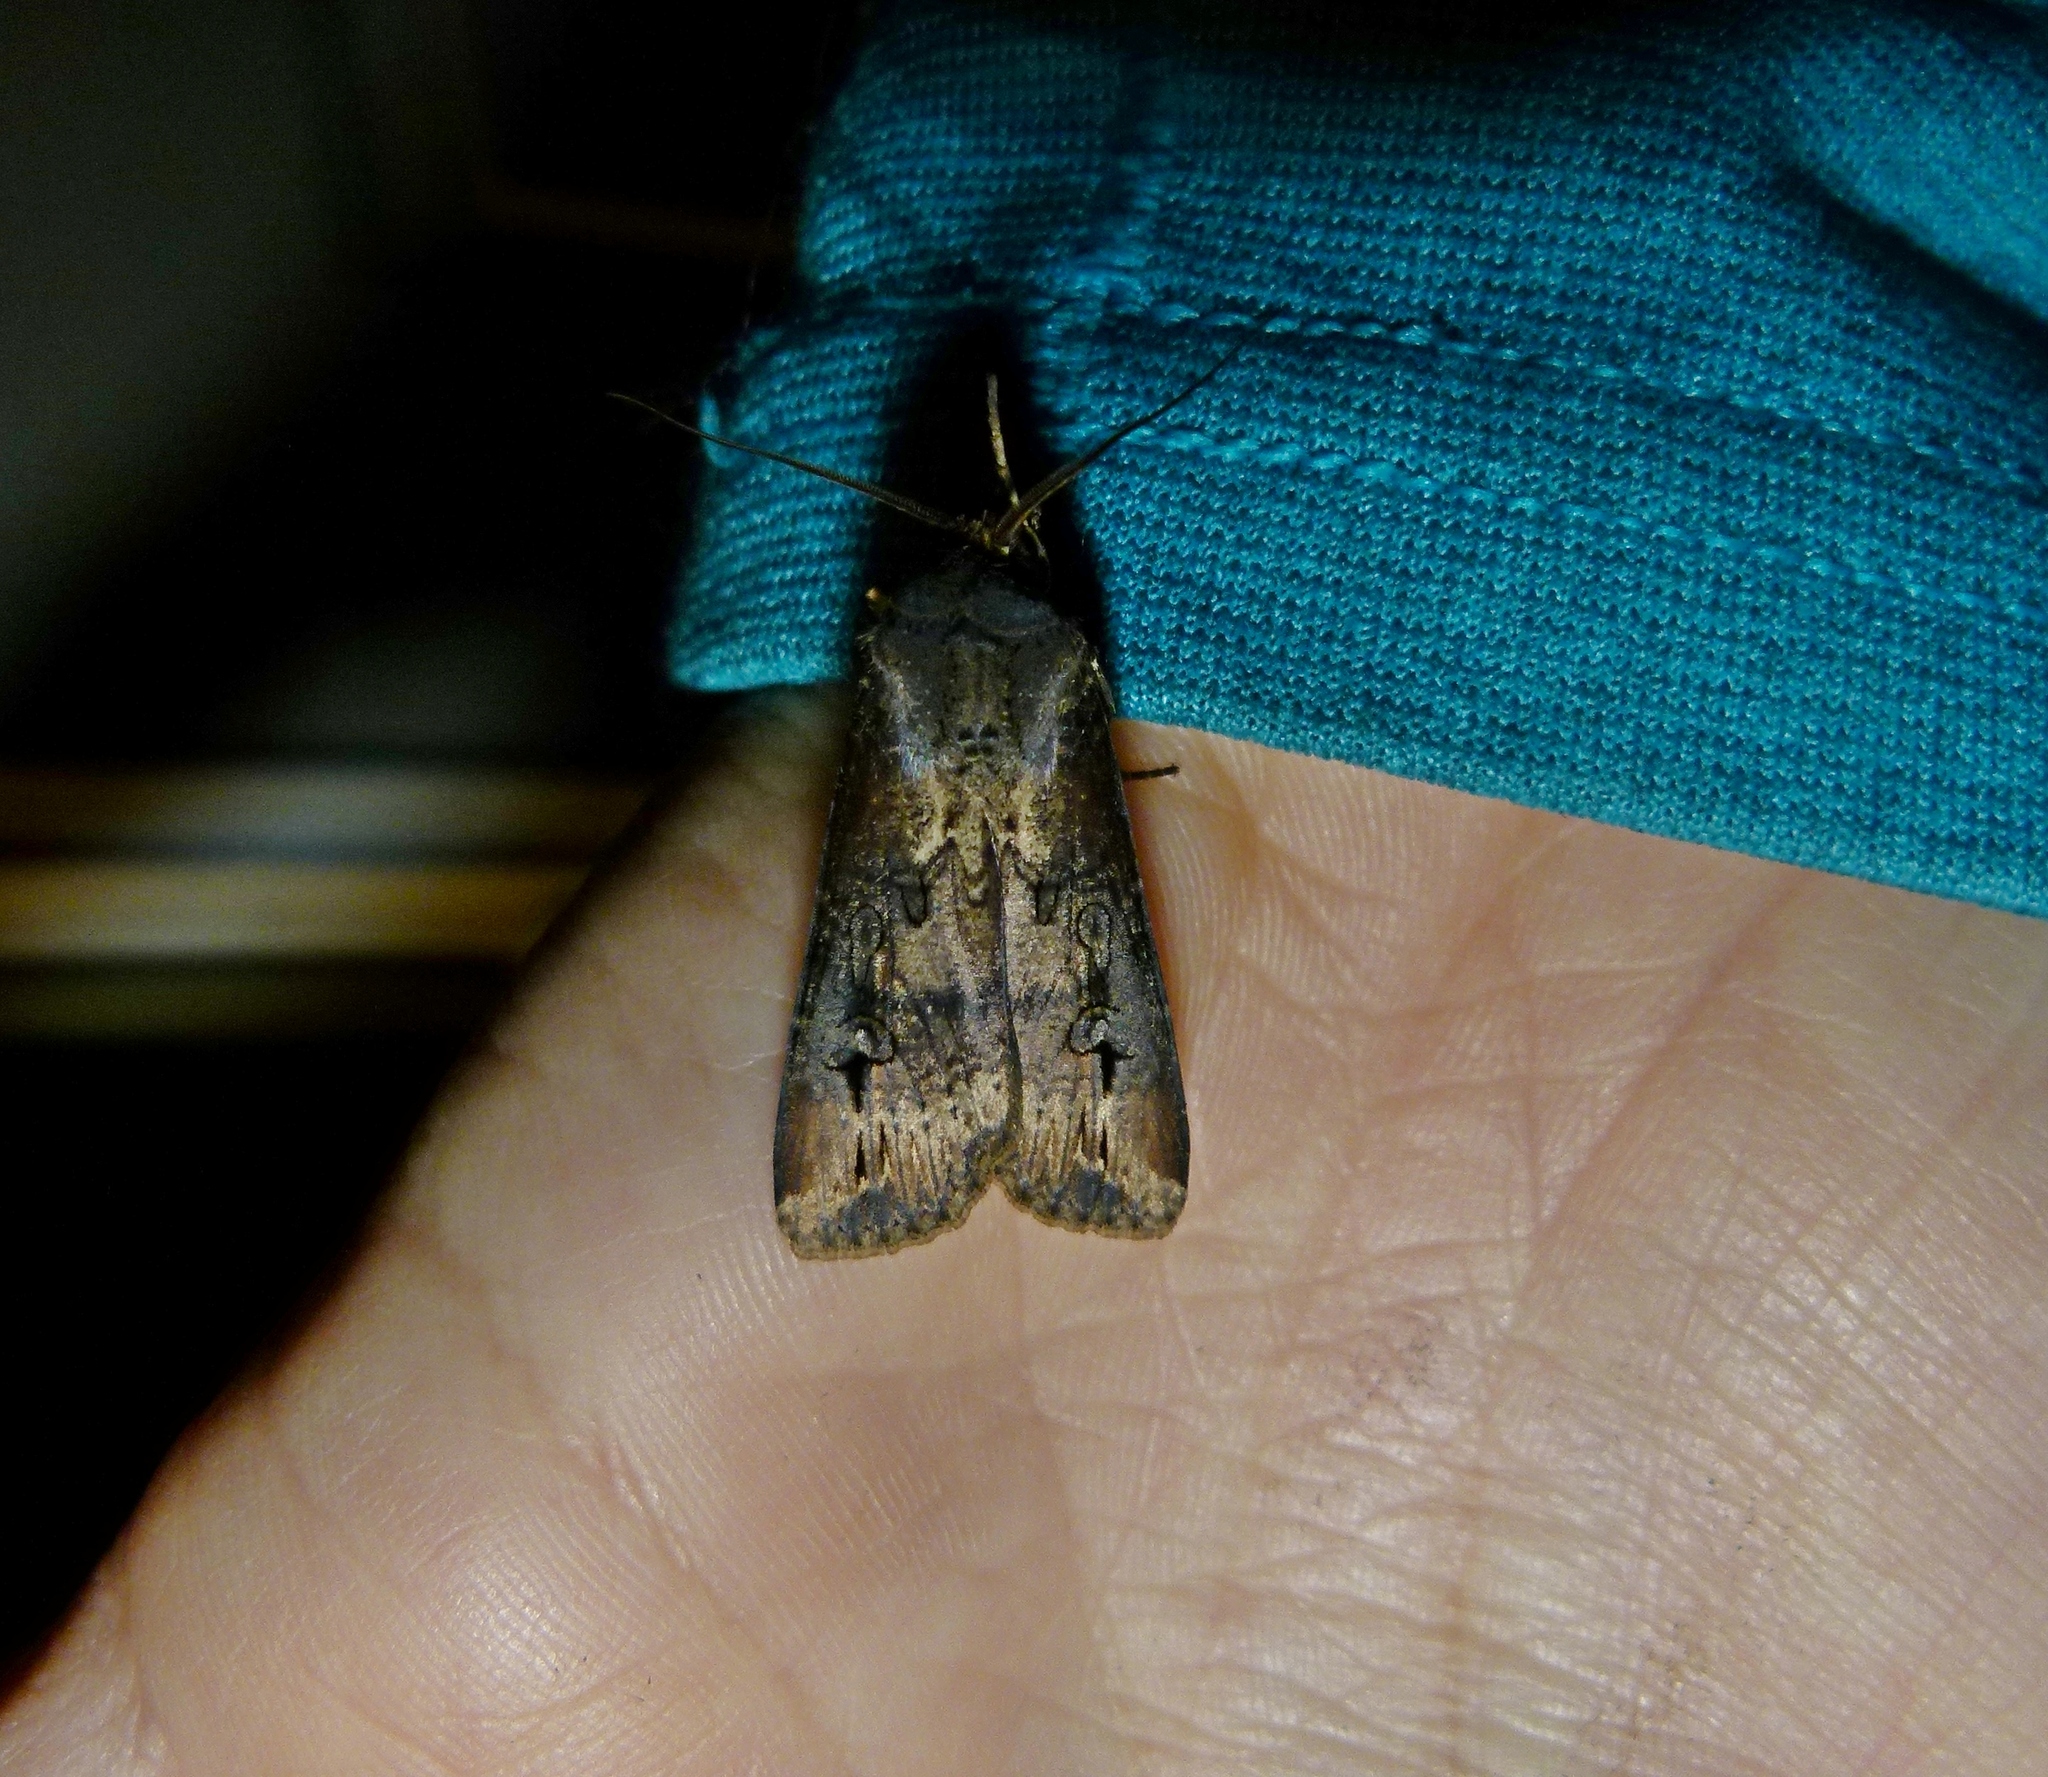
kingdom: Animalia
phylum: Arthropoda
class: Insecta
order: Lepidoptera
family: Noctuidae
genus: Agrotis
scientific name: Agrotis ipsilon
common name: Dark sword-grass
